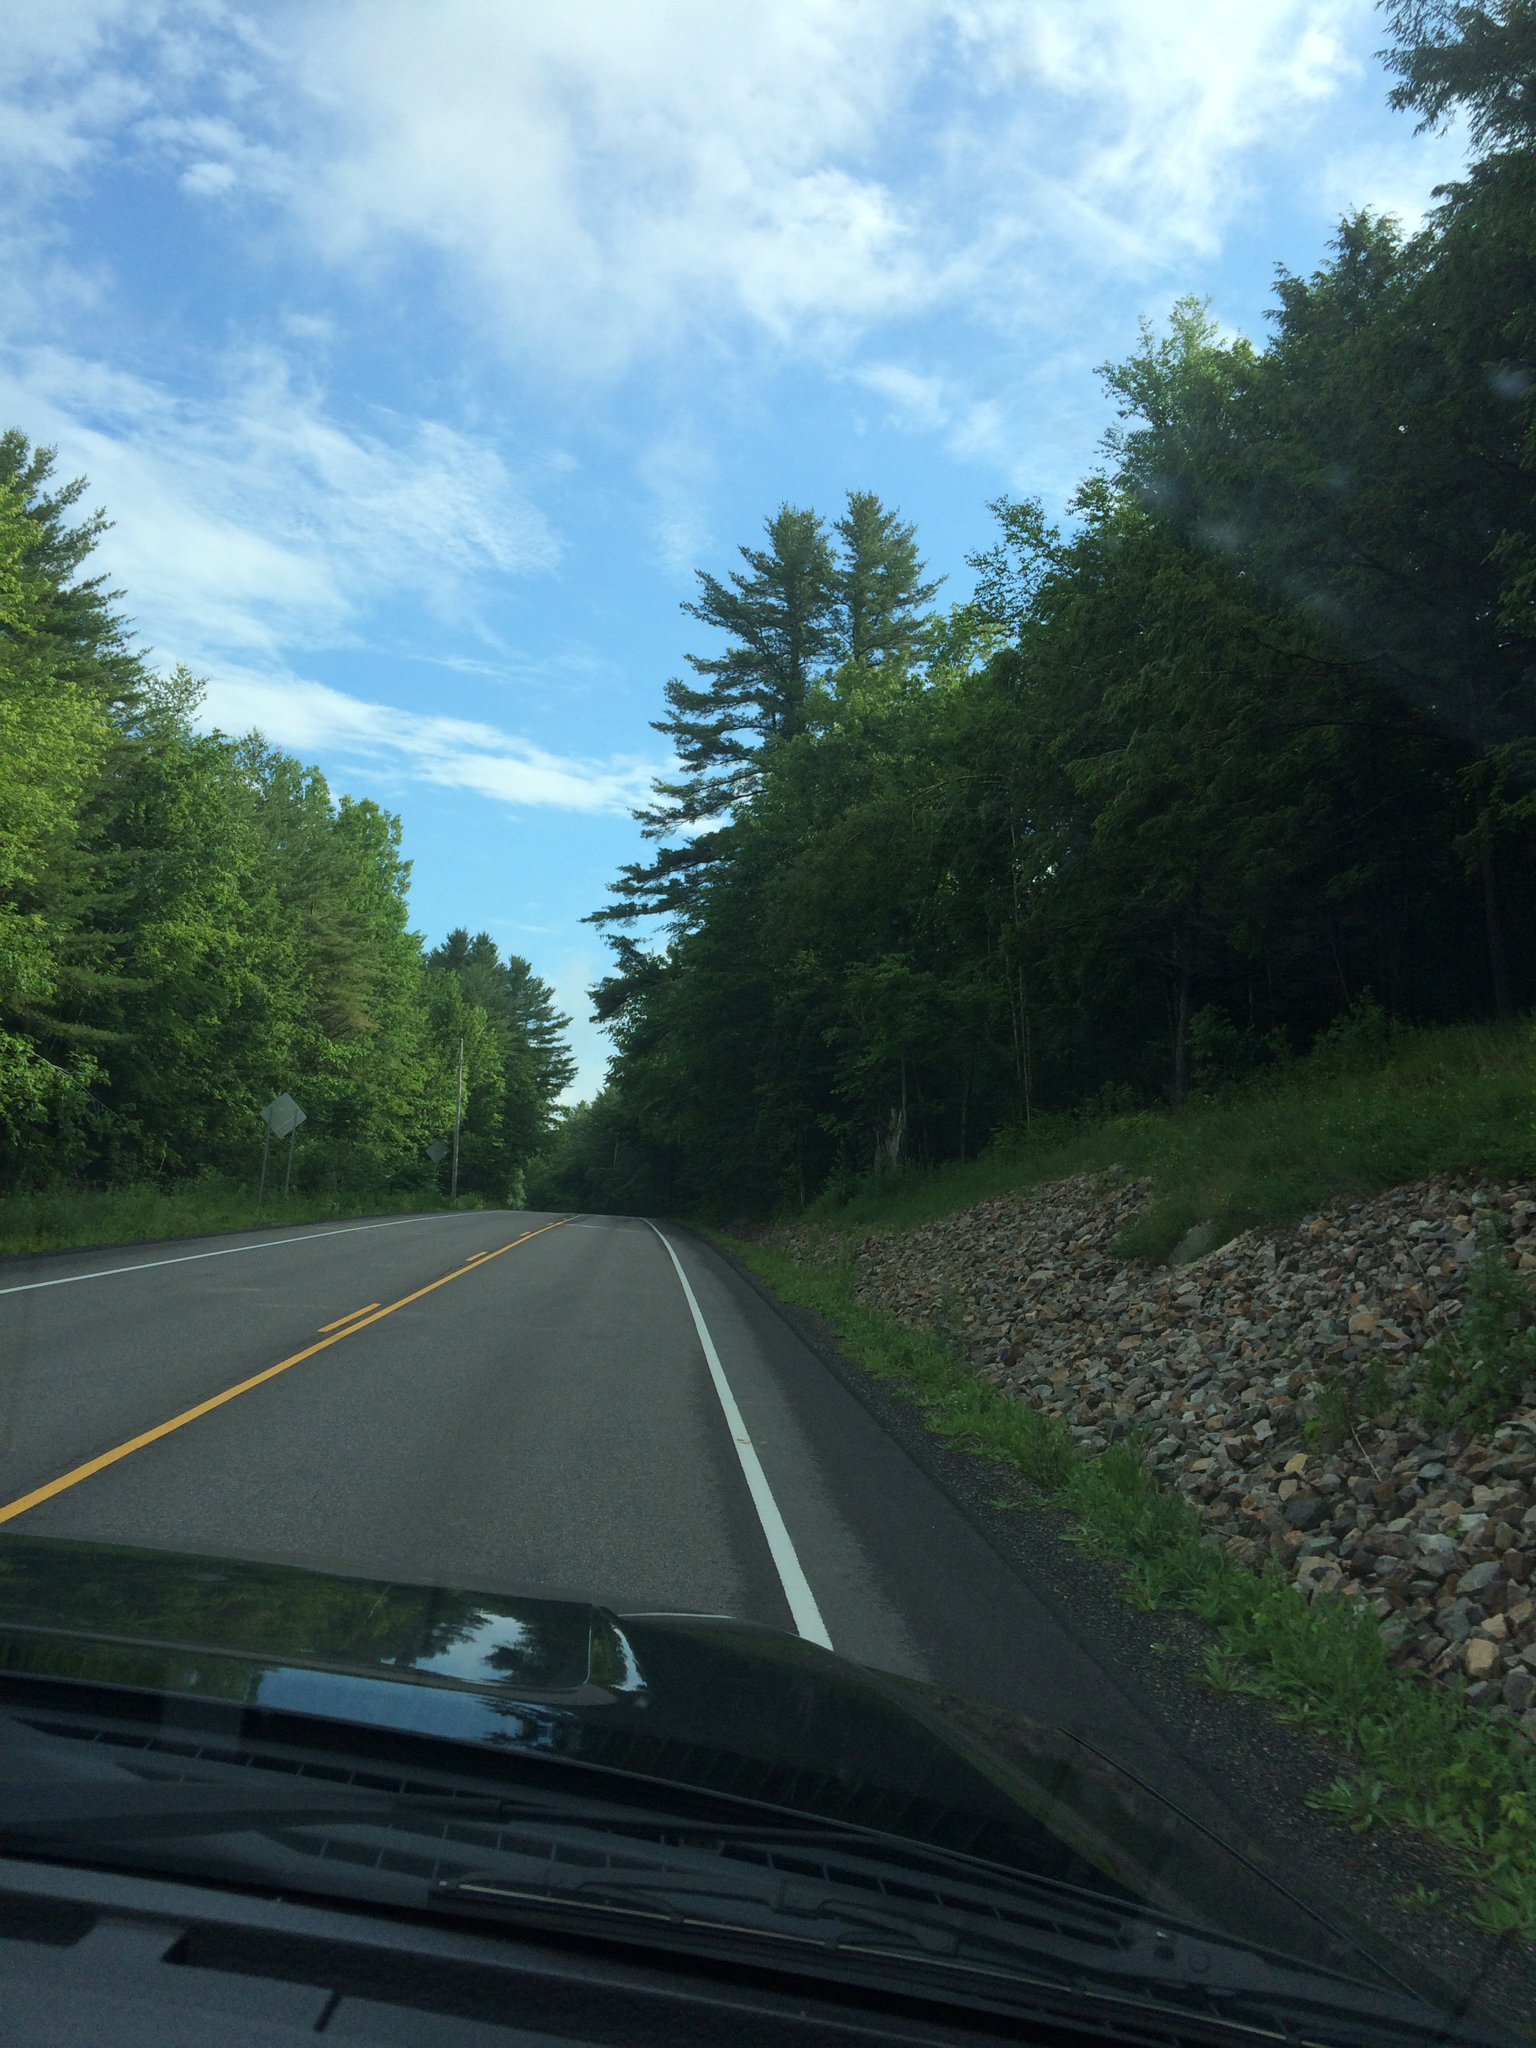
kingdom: Plantae
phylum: Tracheophyta
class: Pinopsida
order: Pinales
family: Pinaceae
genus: Pinus
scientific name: Pinus strobus
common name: Weymouth pine
